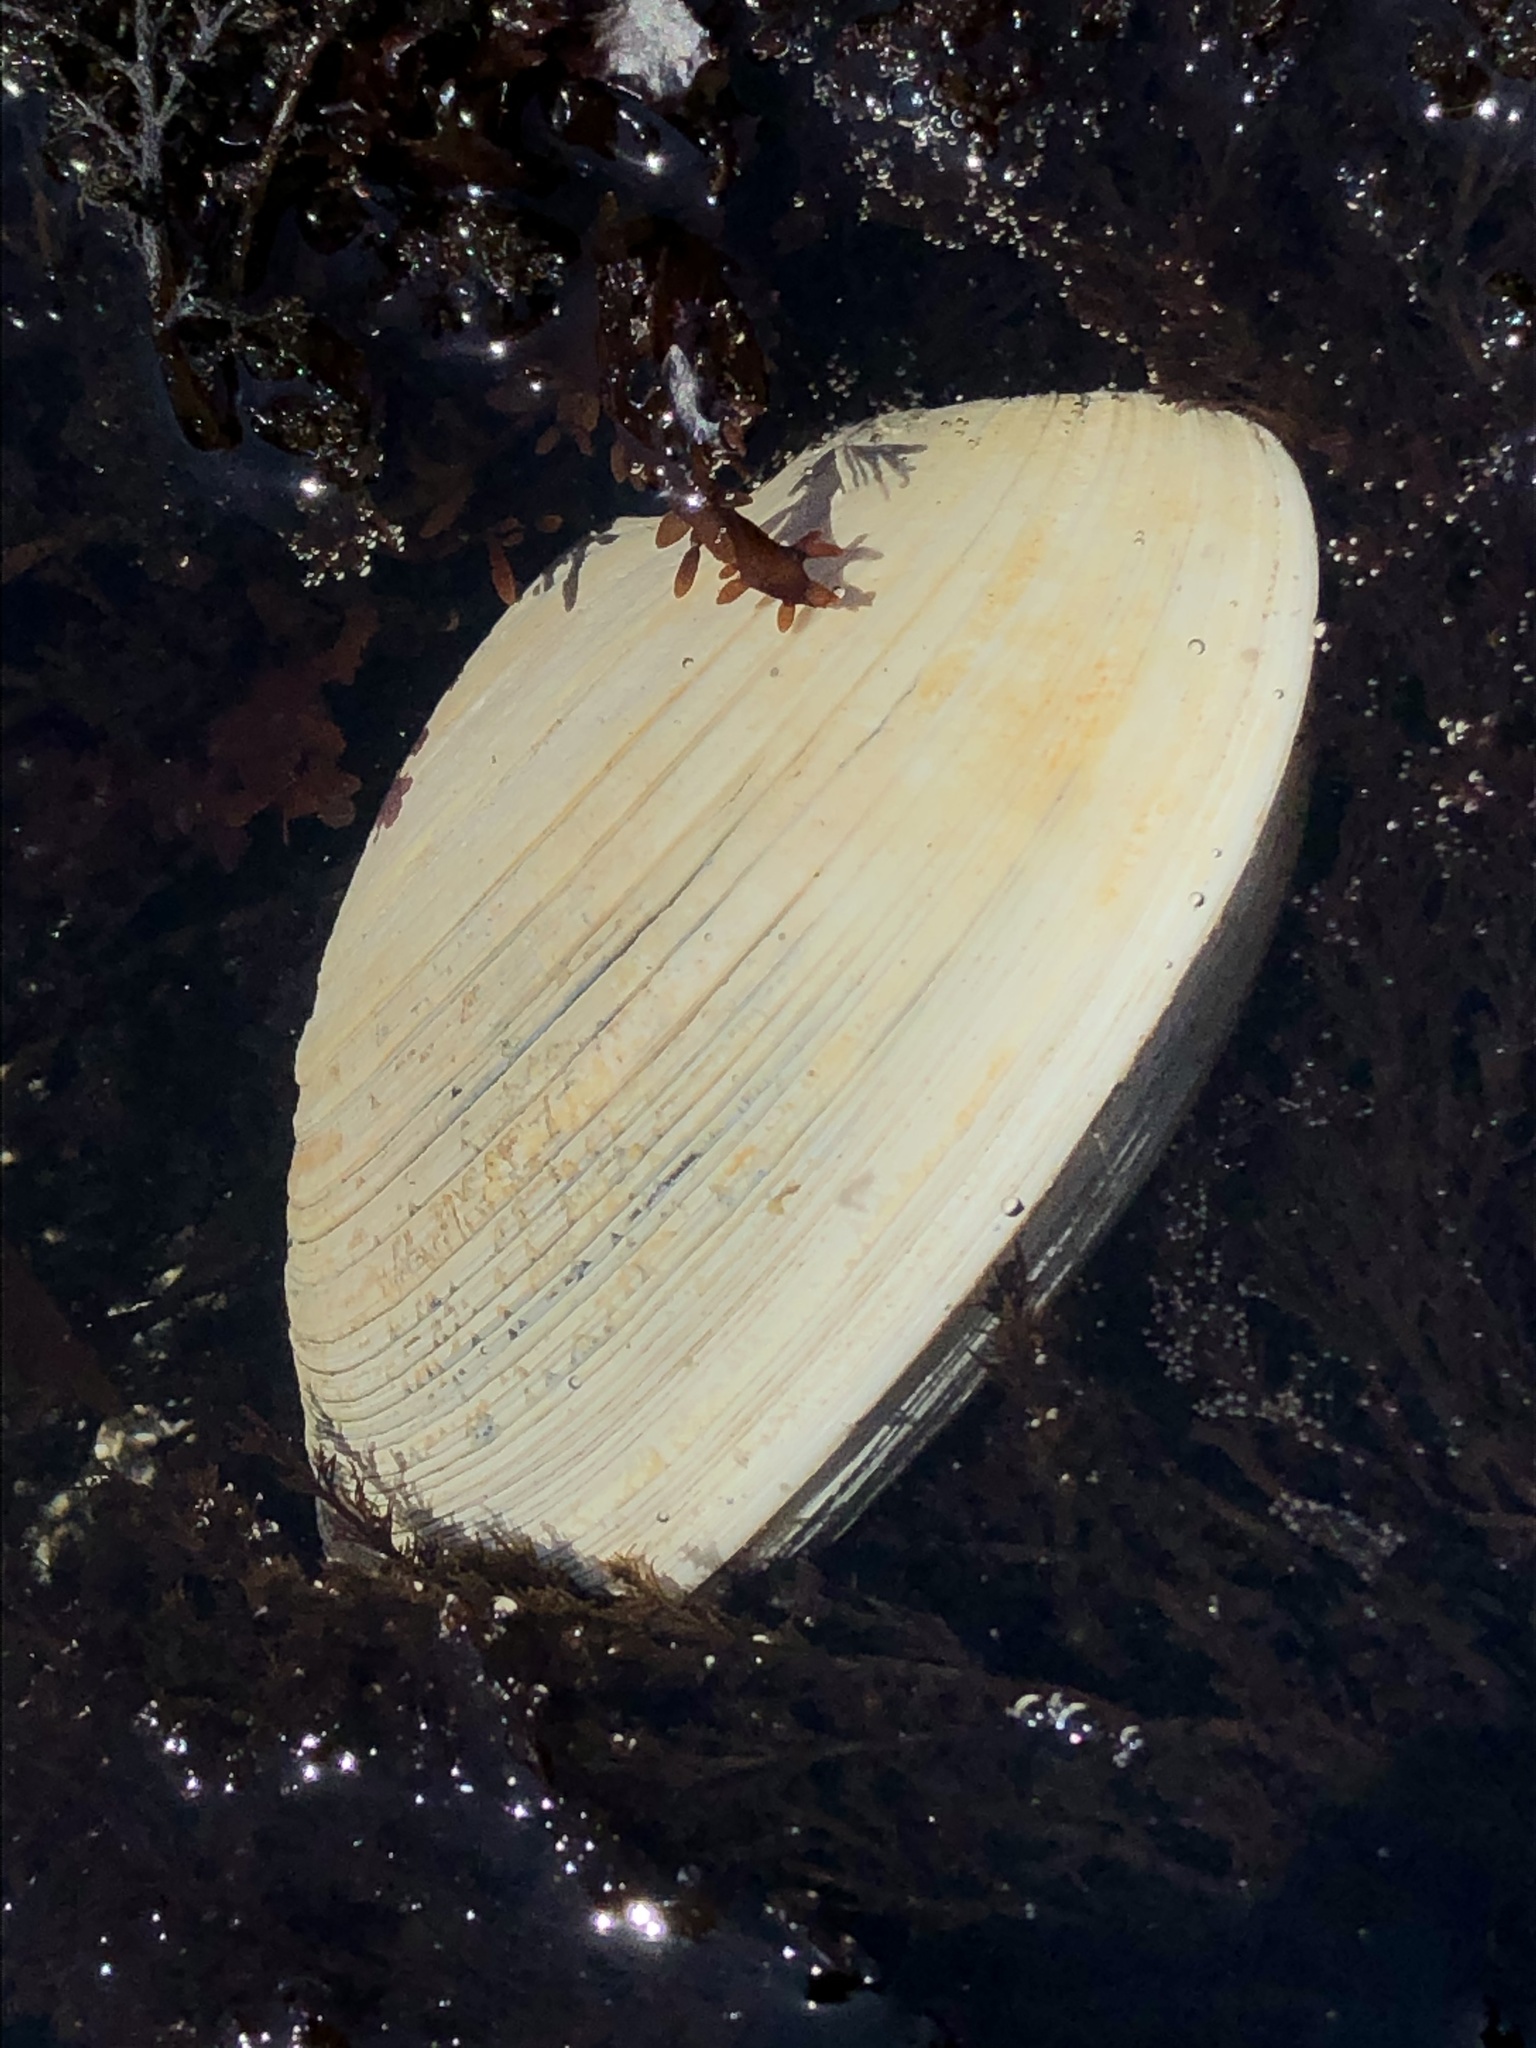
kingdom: Animalia
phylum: Mollusca
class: Bivalvia
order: Venerida
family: Veneridae
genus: Saxidomus
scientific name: Saxidomus gigantea
